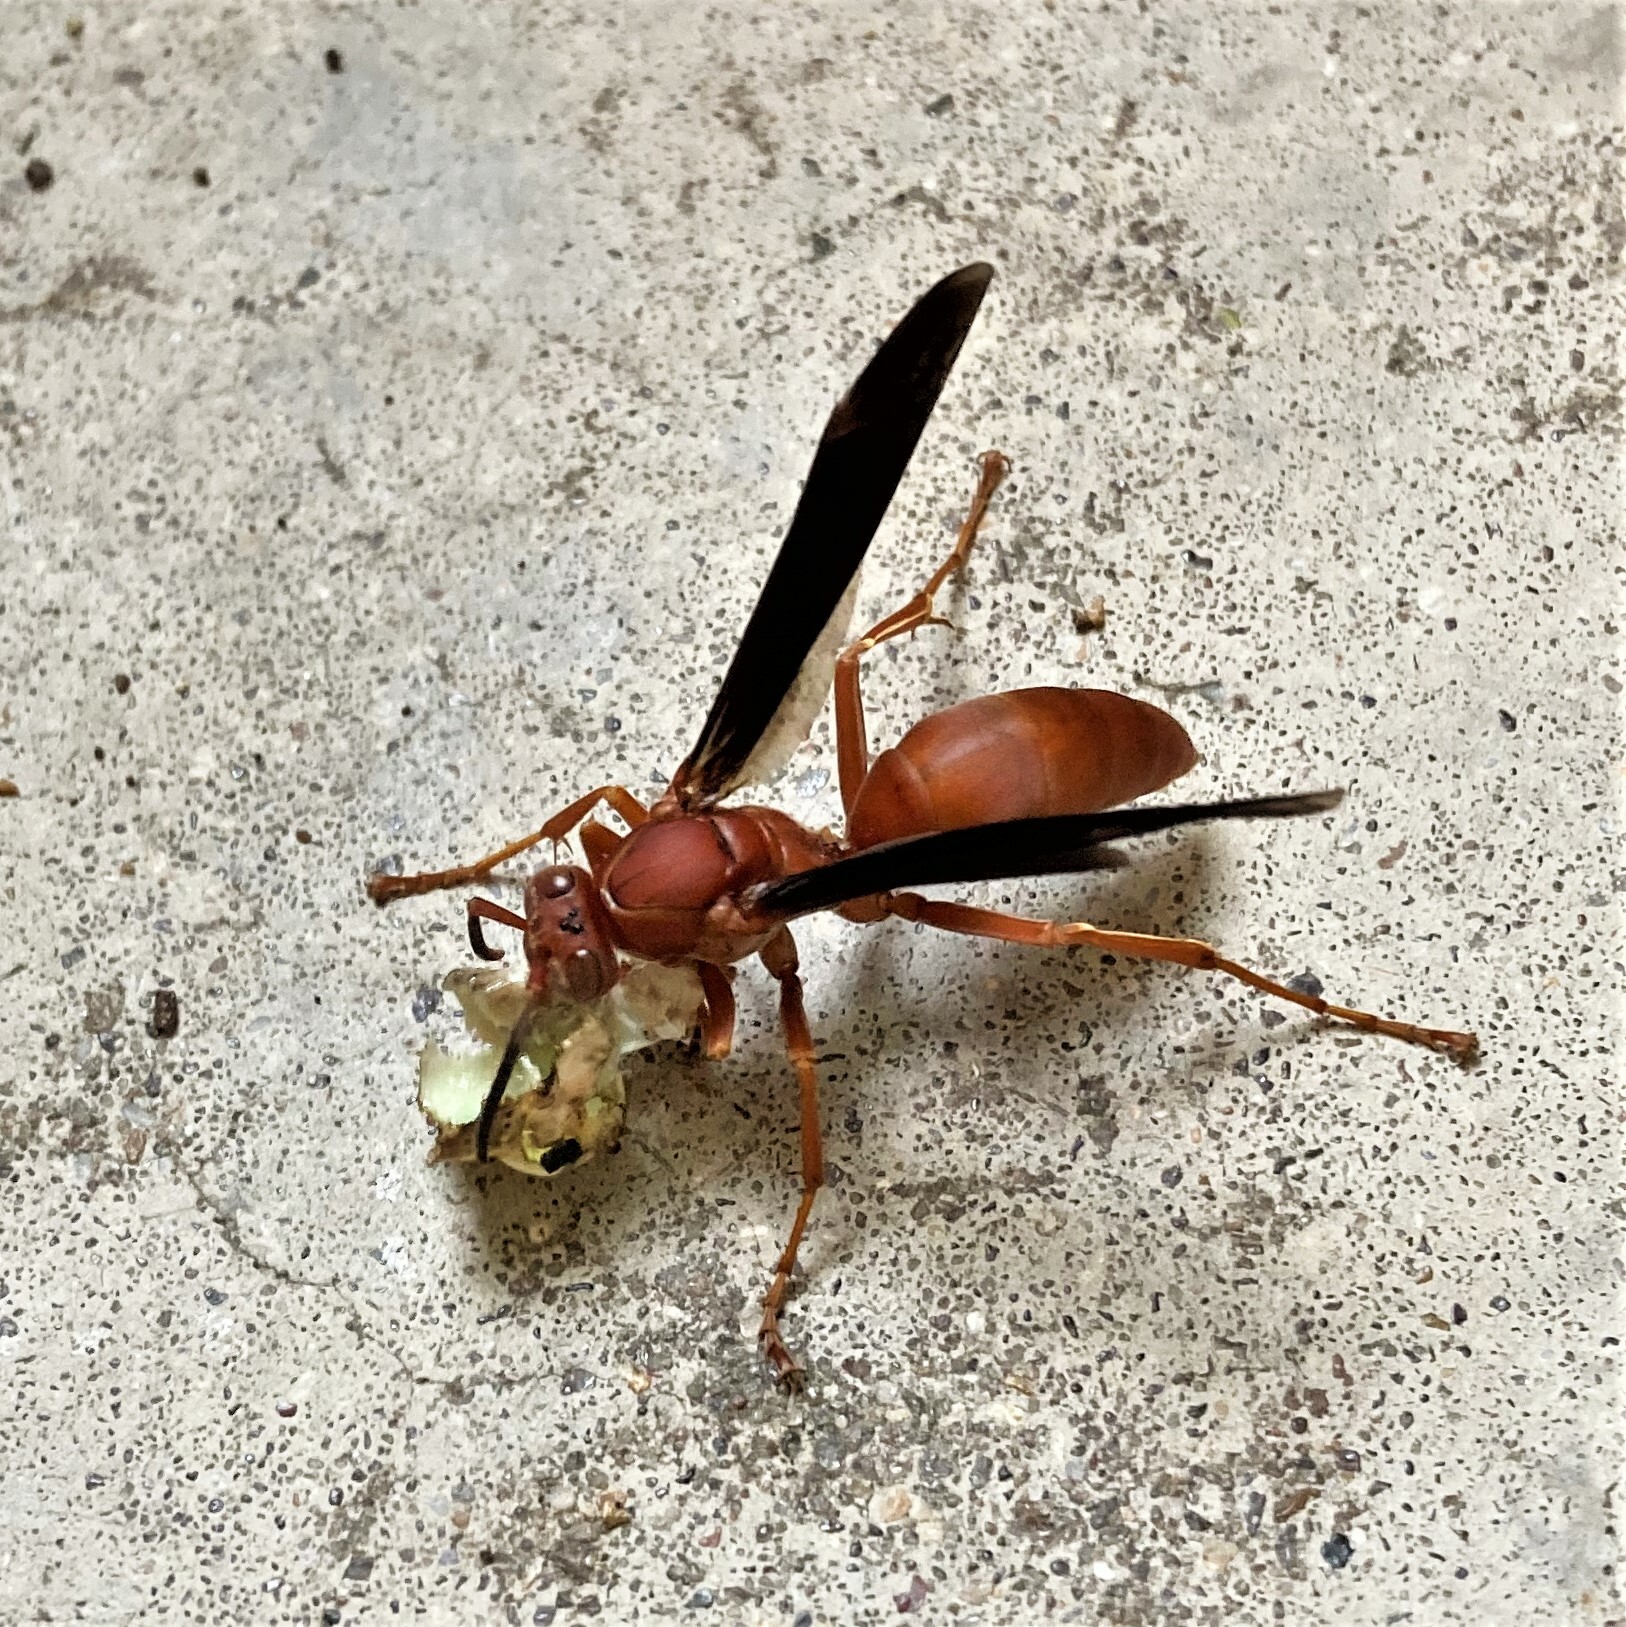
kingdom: Animalia
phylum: Arthropoda
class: Insecta
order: Hymenoptera
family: Vespidae
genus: Fuscopolistes
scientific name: Fuscopolistes
